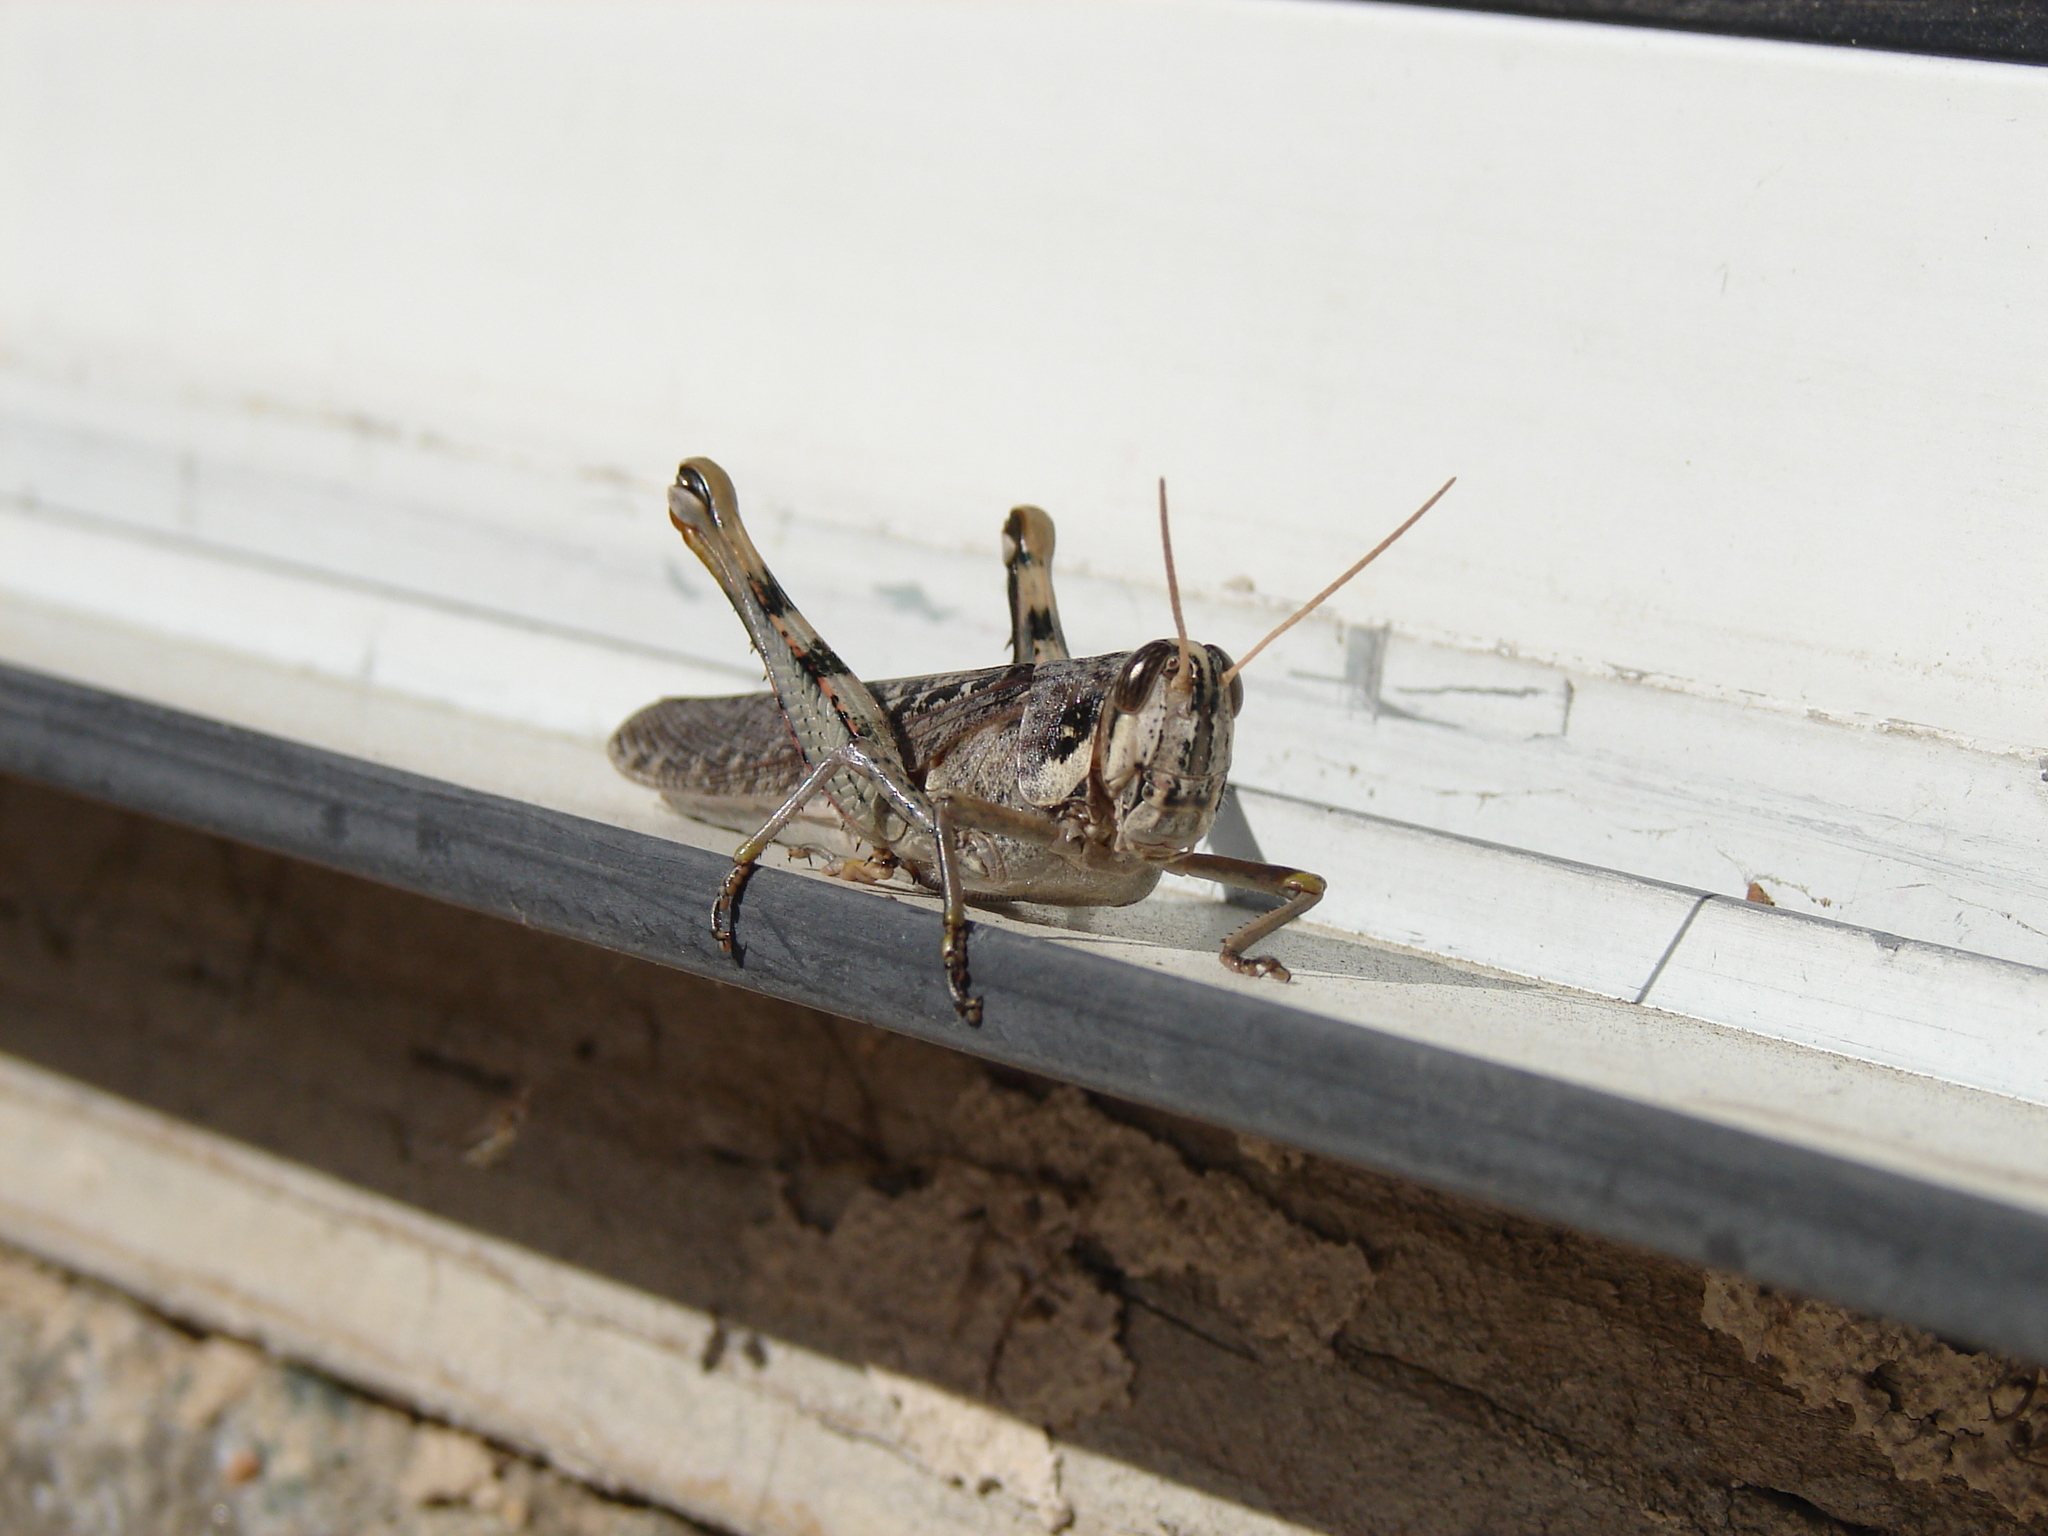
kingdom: Animalia
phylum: Arthropoda
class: Insecta
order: Orthoptera
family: Acrididae
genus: Schistocerca
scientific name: Schistocerca nitens
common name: Vagrant grasshopper
